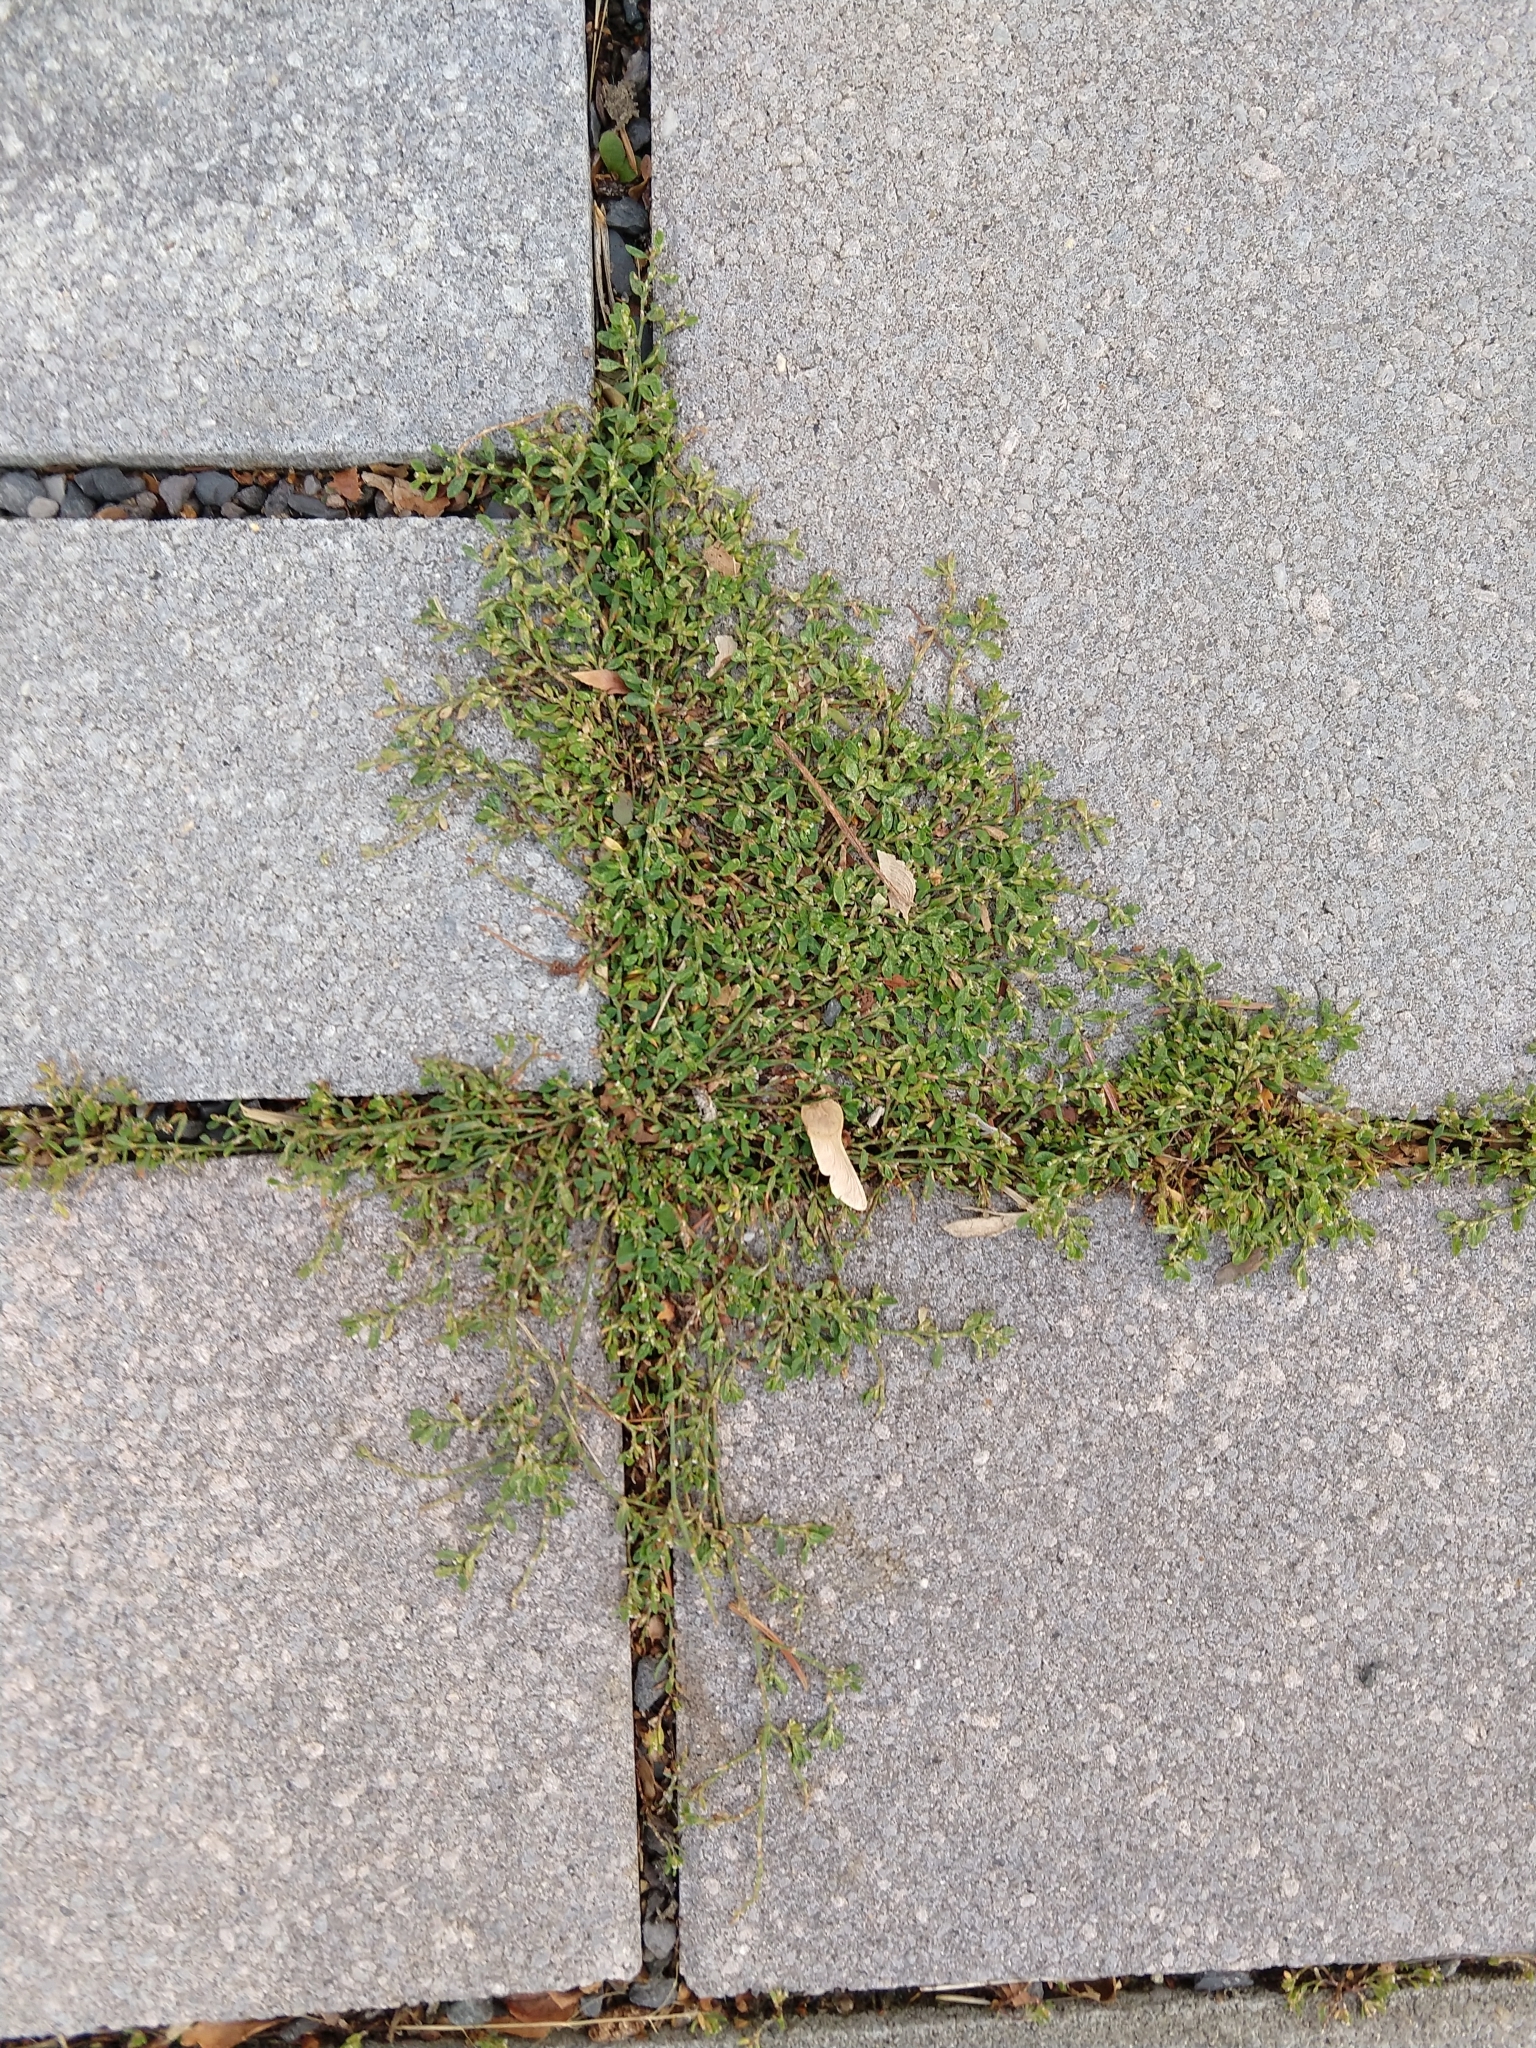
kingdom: Plantae
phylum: Tracheophyta
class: Magnoliopsida
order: Caryophyllales
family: Polygonaceae
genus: Polygonum
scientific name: Polygonum aviculare
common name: Prostrate knotweed
